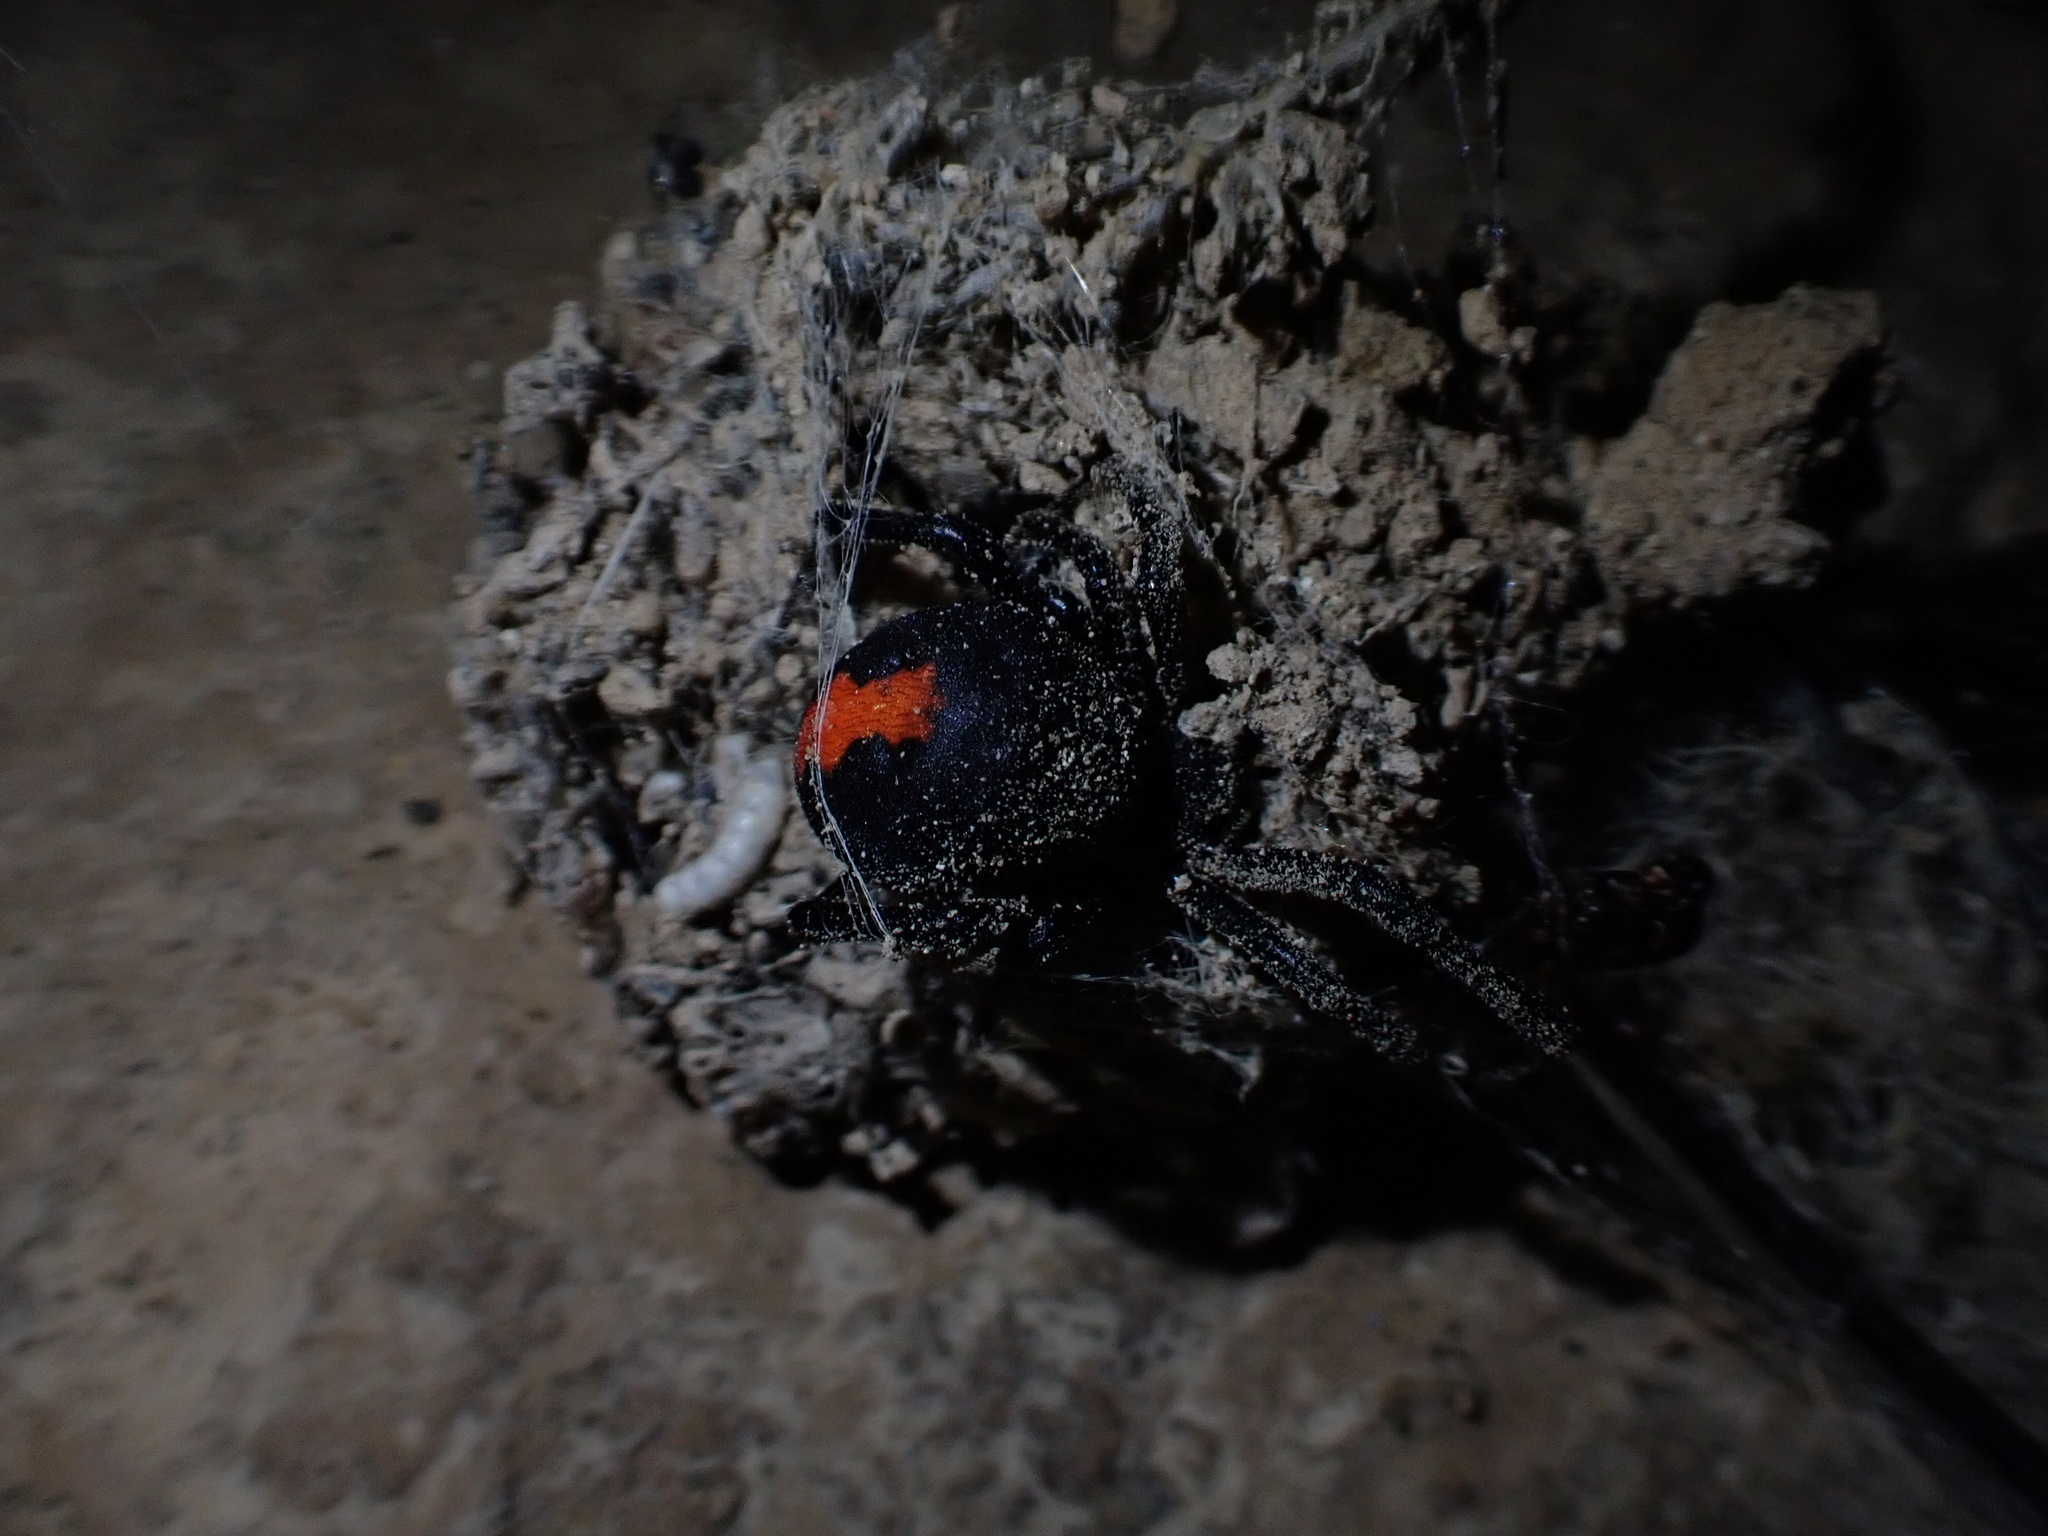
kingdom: Animalia
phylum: Arthropoda
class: Arachnida
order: Araneae
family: Theridiidae
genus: Latrodectus
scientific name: Latrodectus cinctus
